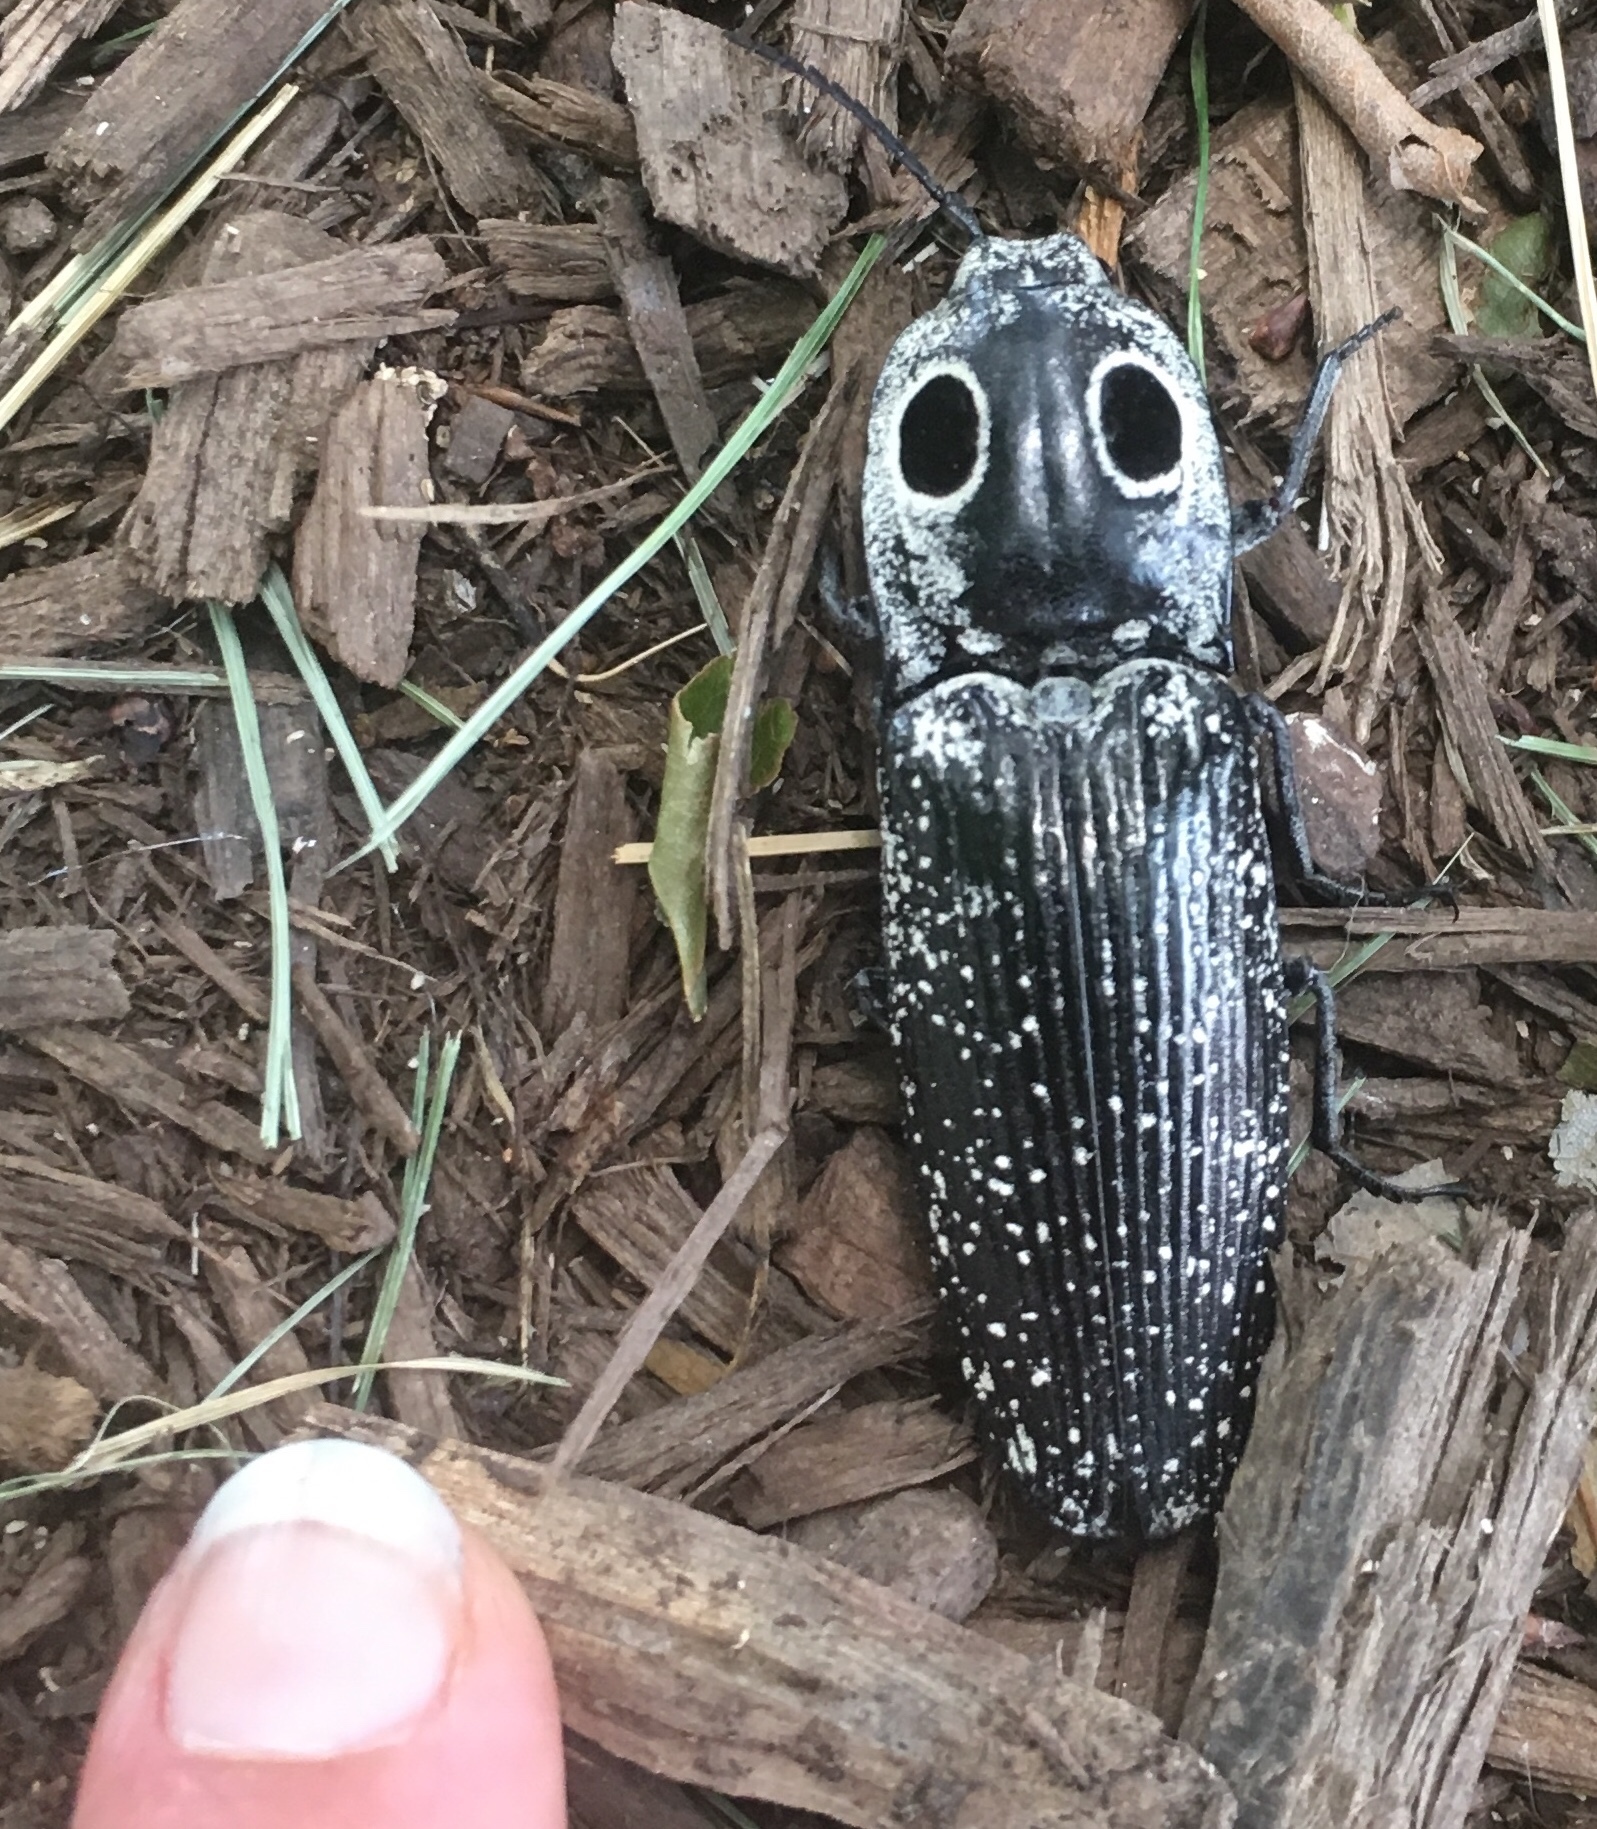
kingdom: Animalia
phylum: Arthropoda
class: Insecta
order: Coleoptera
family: Elateridae
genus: Alaus
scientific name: Alaus oculatus
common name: Eastern eyed click beetle
